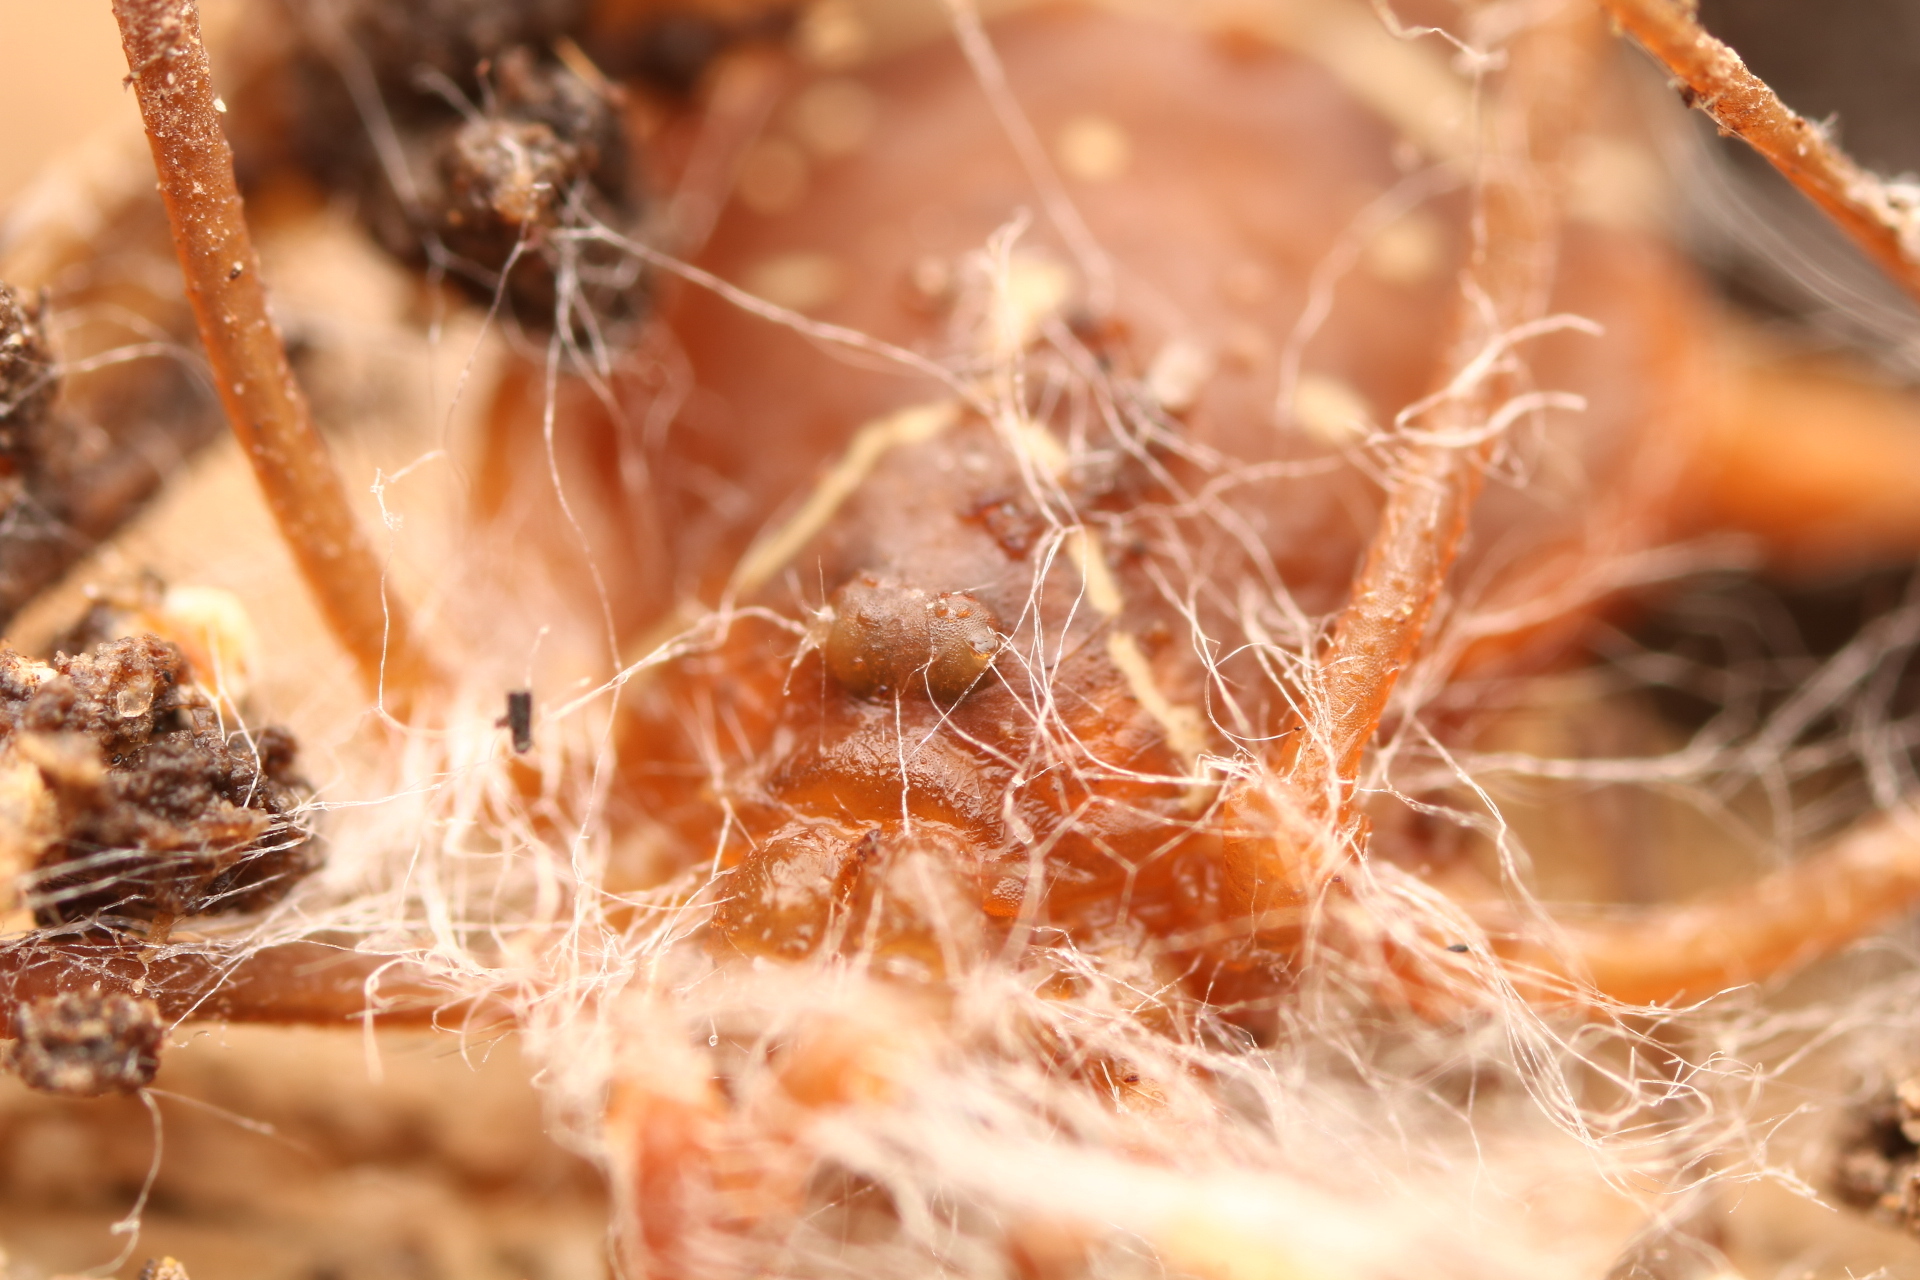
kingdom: Animalia
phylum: Arthropoda
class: Arachnida
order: Opiliones
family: Cosmetidae
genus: Libitioides
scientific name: Libitioides sayi
